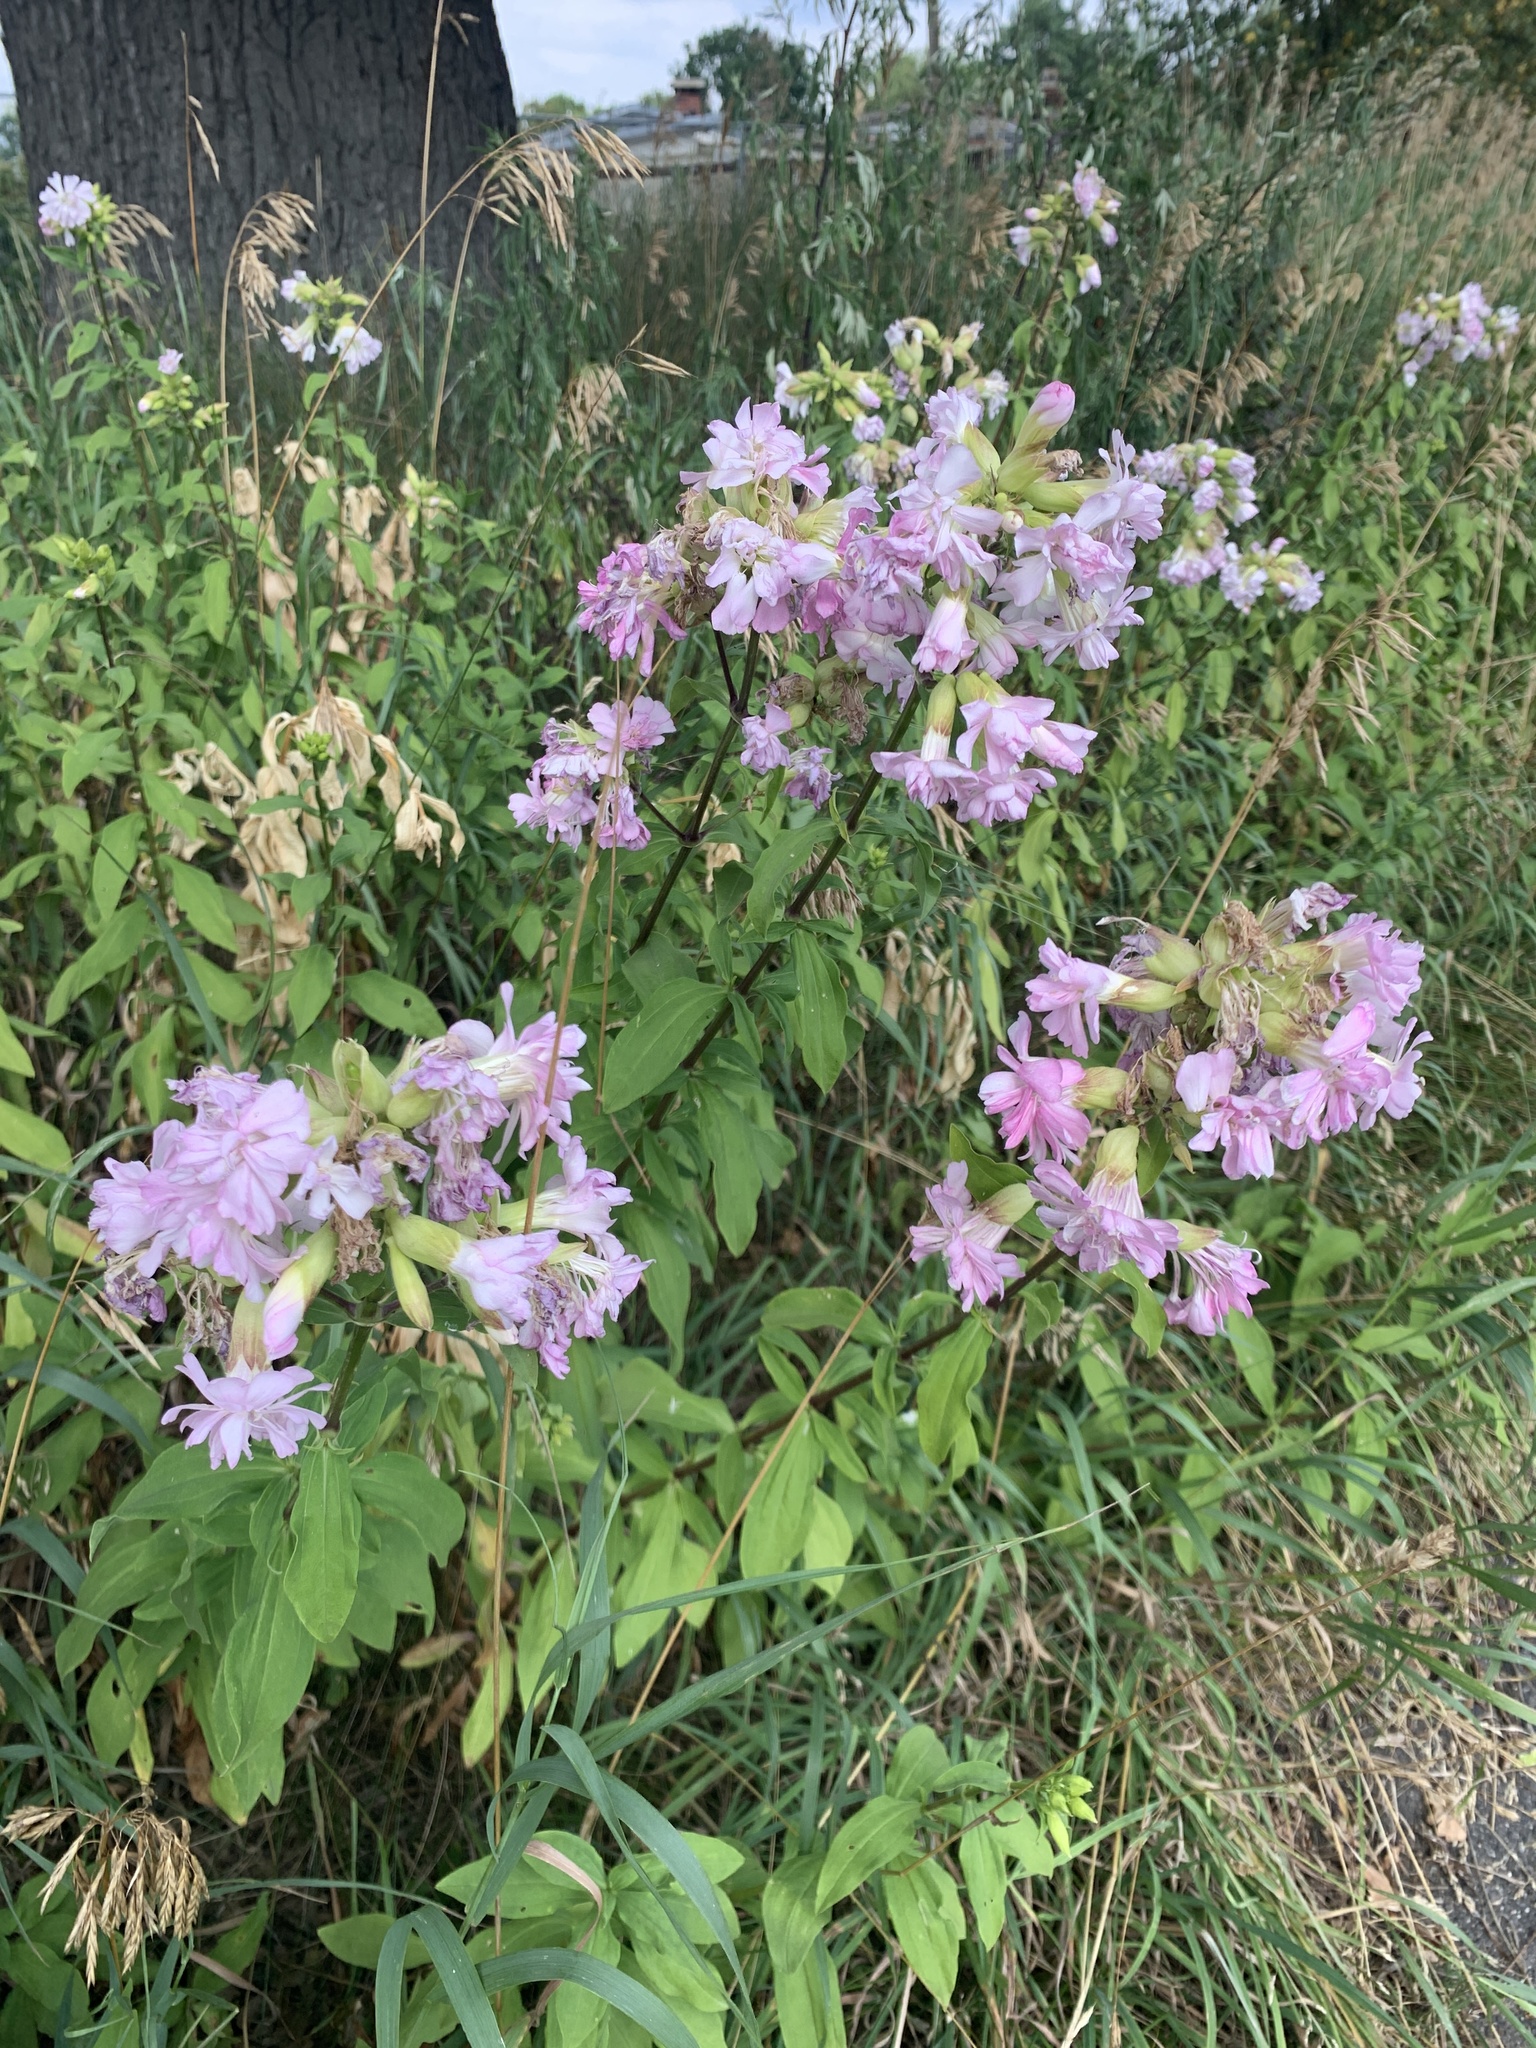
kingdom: Plantae
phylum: Tracheophyta
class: Magnoliopsida
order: Caryophyllales
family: Caryophyllaceae
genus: Saponaria
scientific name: Saponaria officinalis
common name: Soapwort
